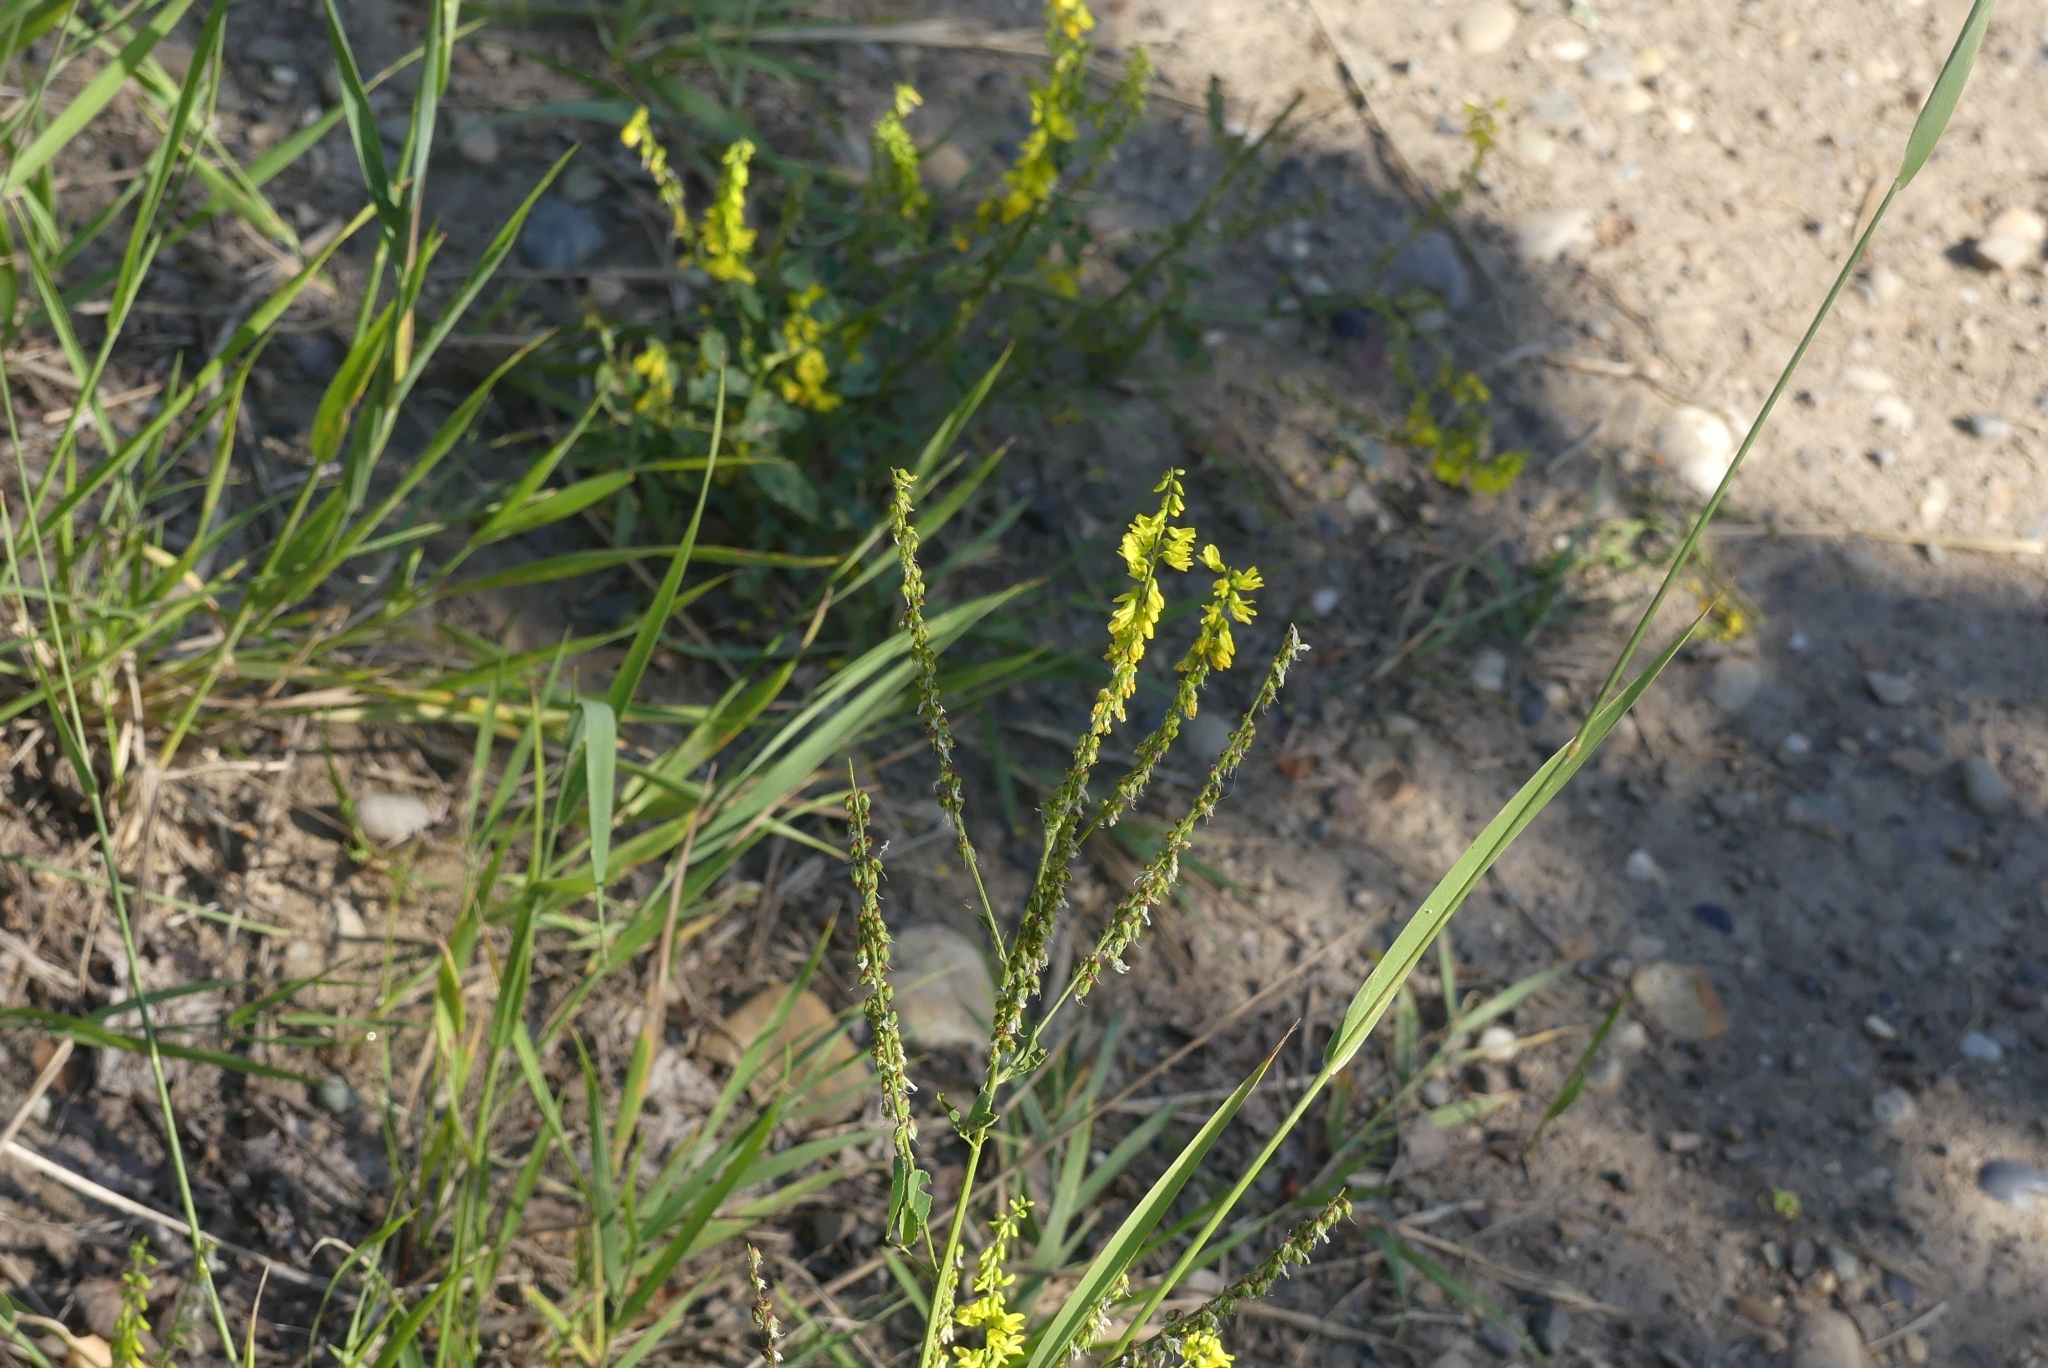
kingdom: Plantae
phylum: Tracheophyta
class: Magnoliopsida
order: Fabales
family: Fabaceae
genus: Melilotus
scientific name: Melilotus officinalis
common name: Sweetclover
